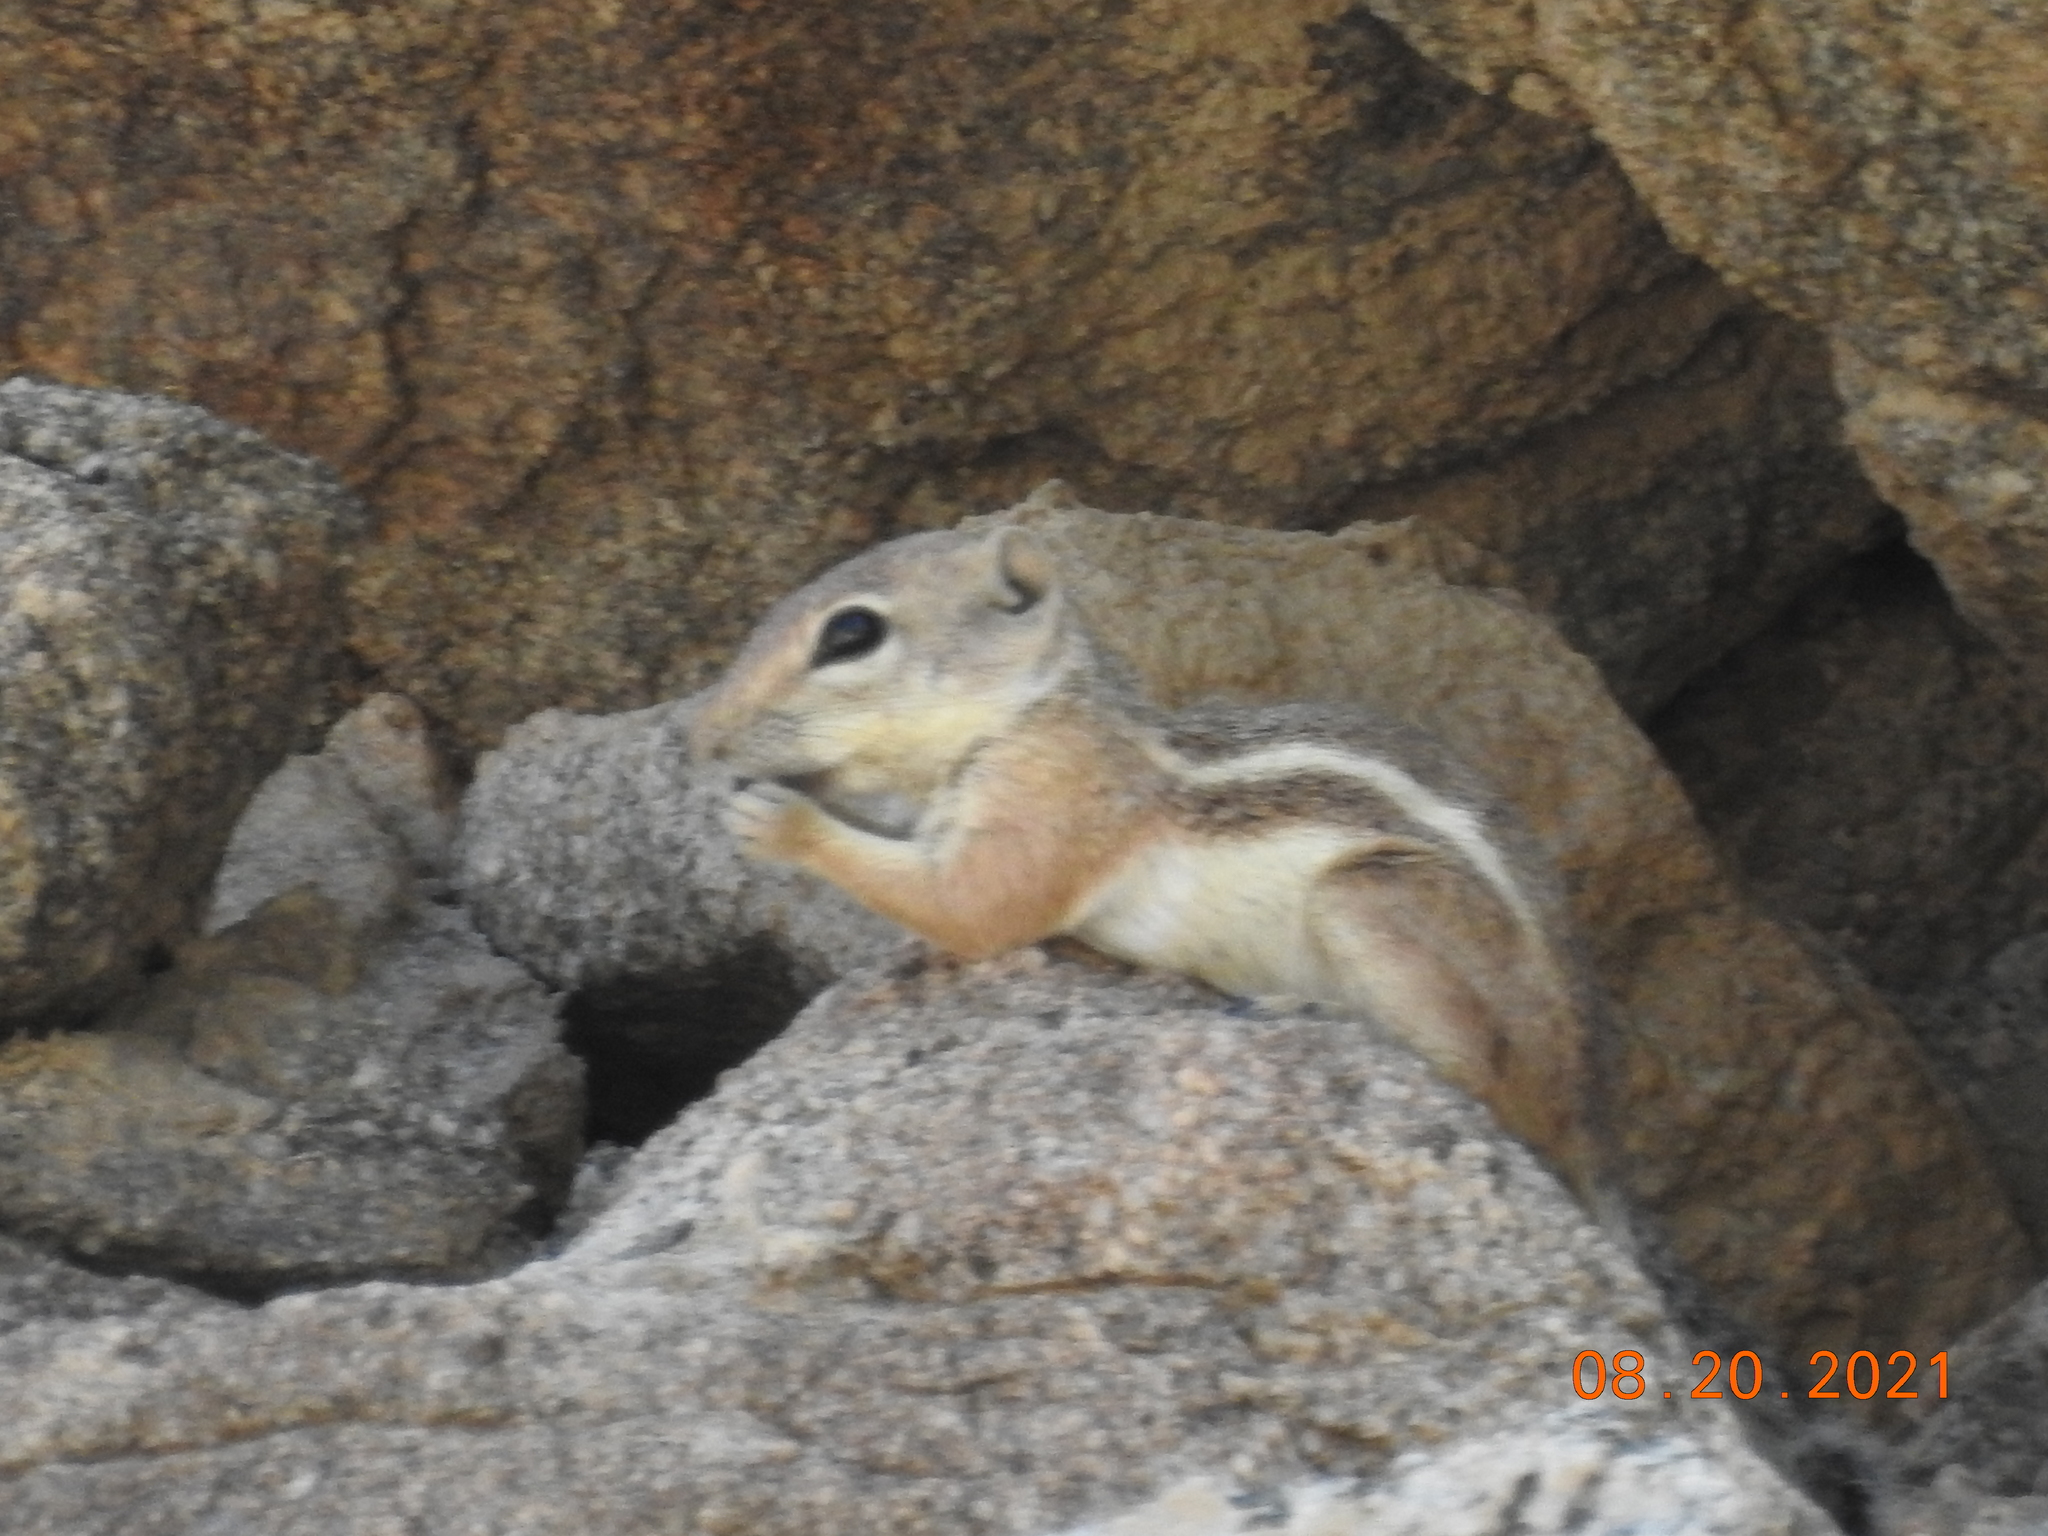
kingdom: Animalia
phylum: Chordata
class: Mammalia
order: Rodentia
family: Sciuridae
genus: Ammospermophilus
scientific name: Ammospermophilus leucurus
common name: White-tailed antelope squirrel
